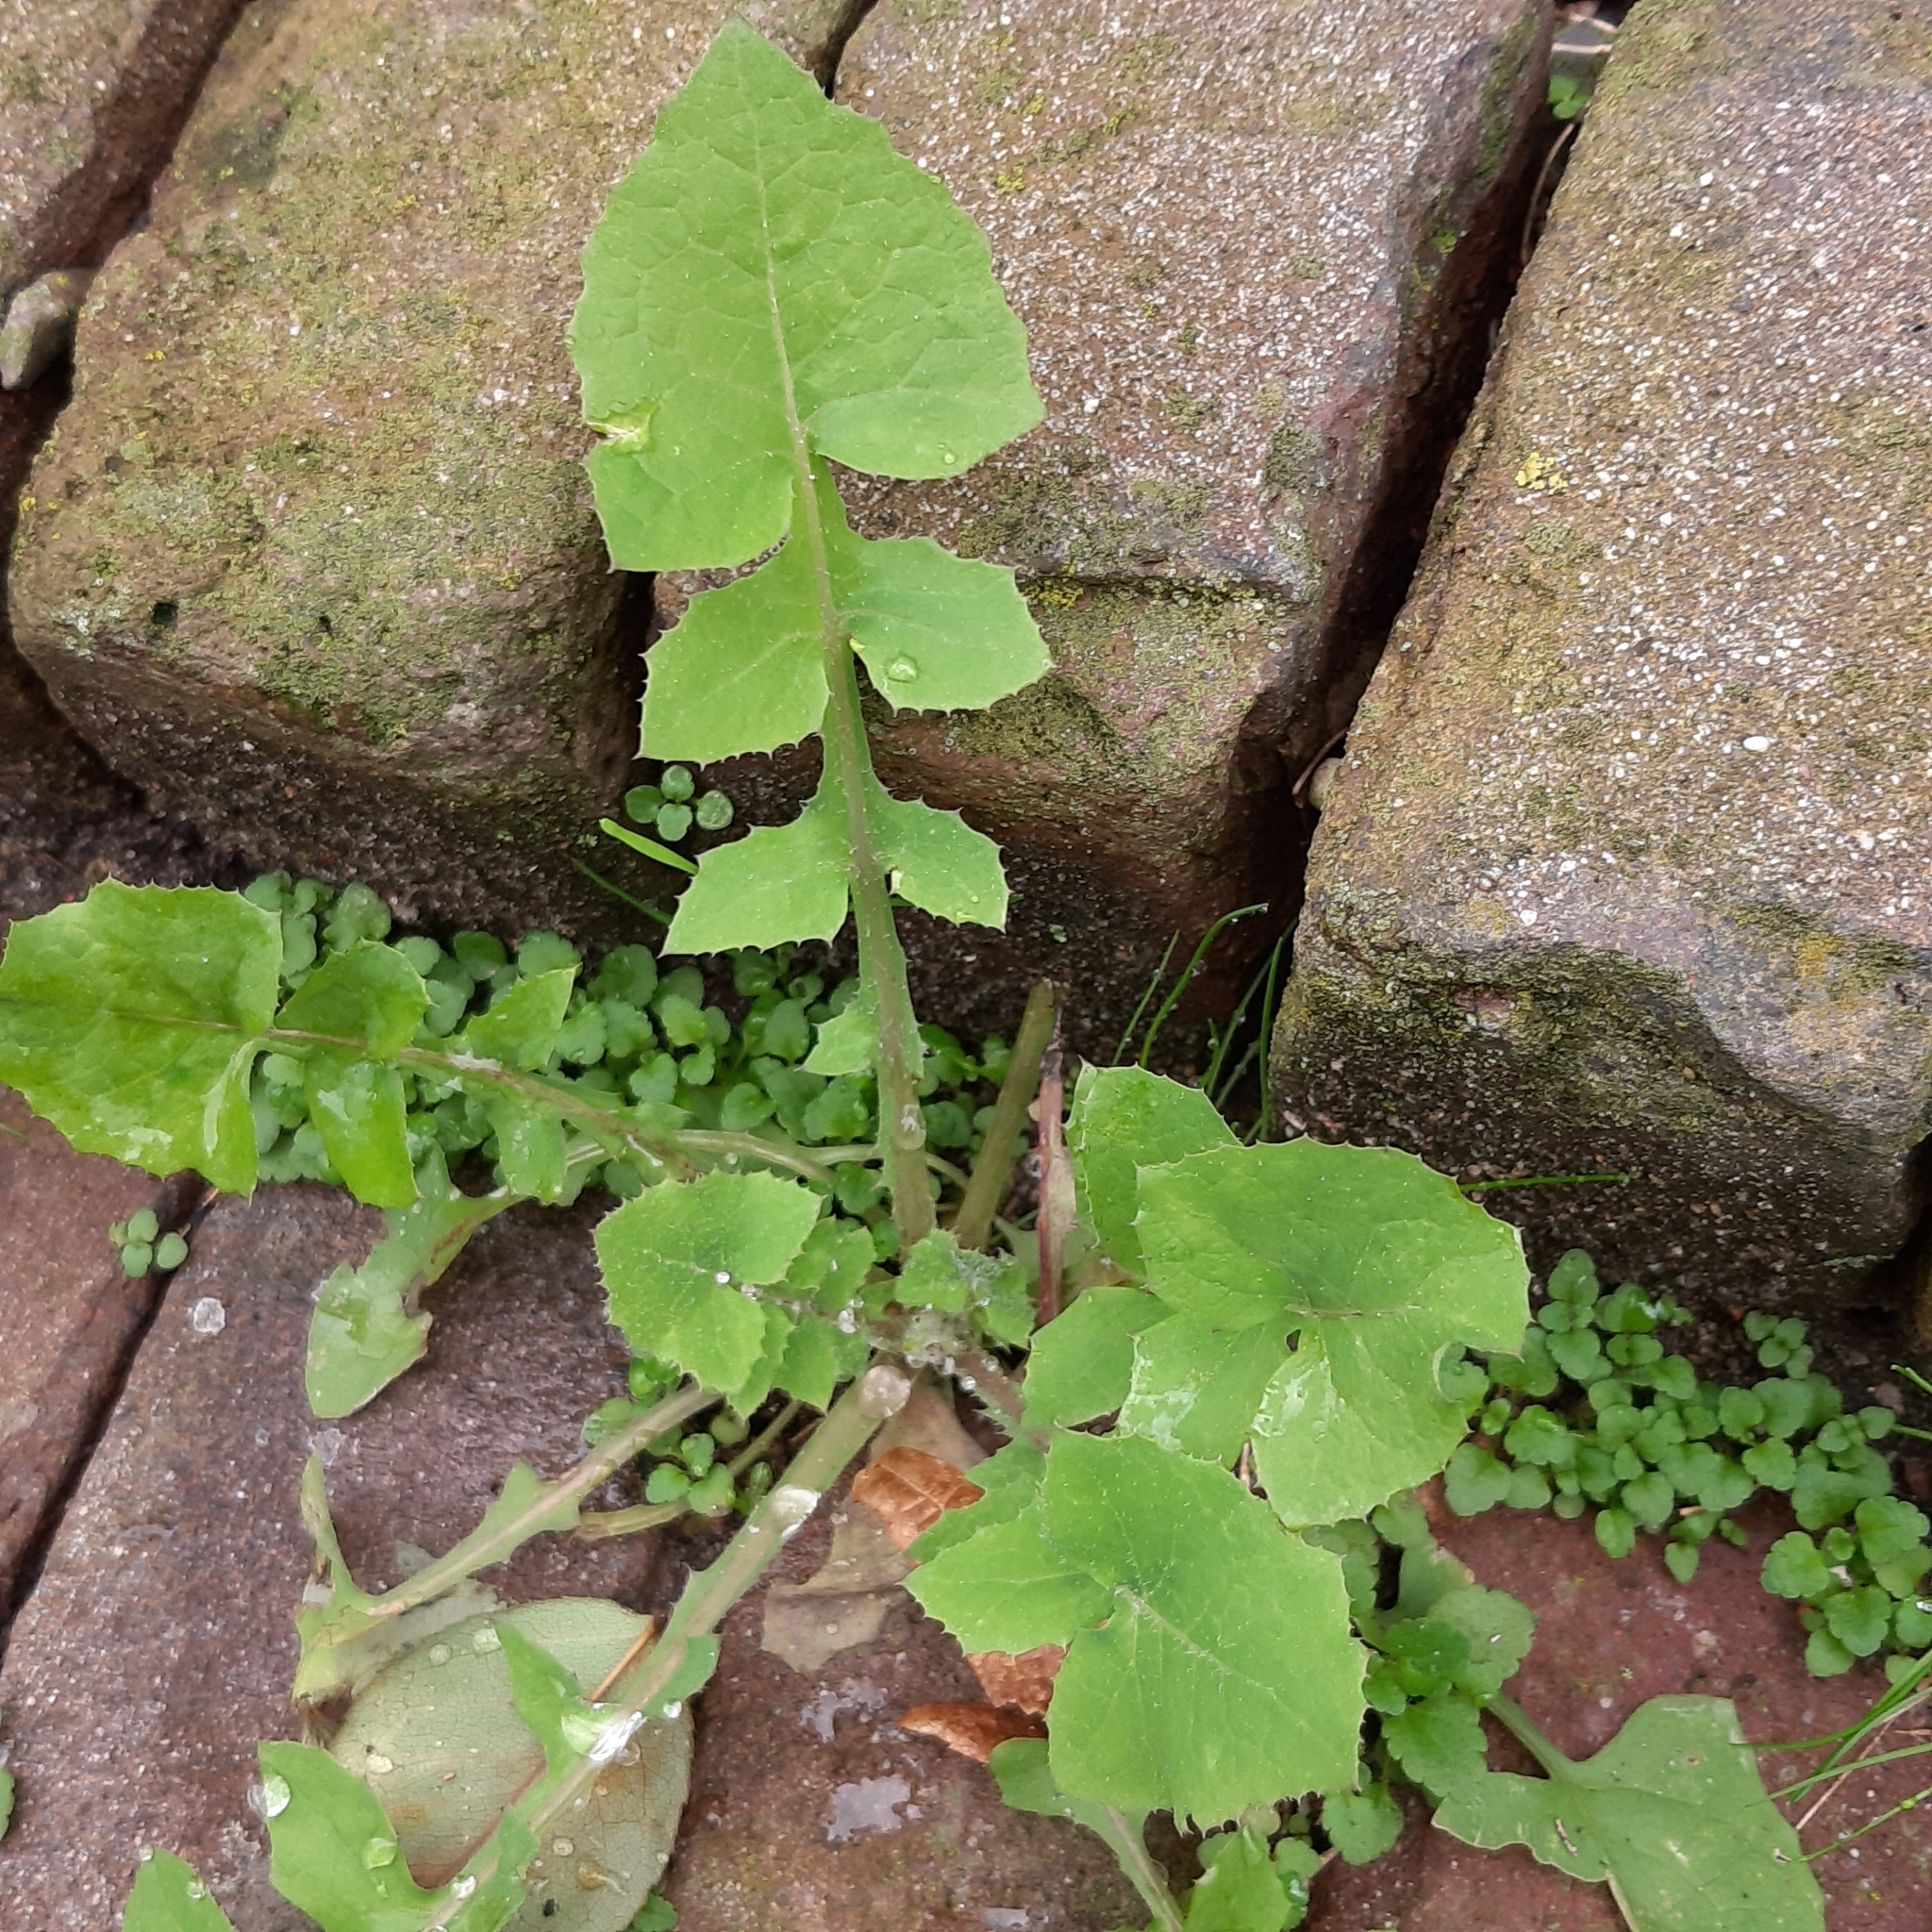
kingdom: Plantae
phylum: Tracheophyta
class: Magnoliopsida
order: Asterales
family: Asteraceae
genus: Sonchus
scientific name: Sonchus oleraceus
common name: Common sowthistle
